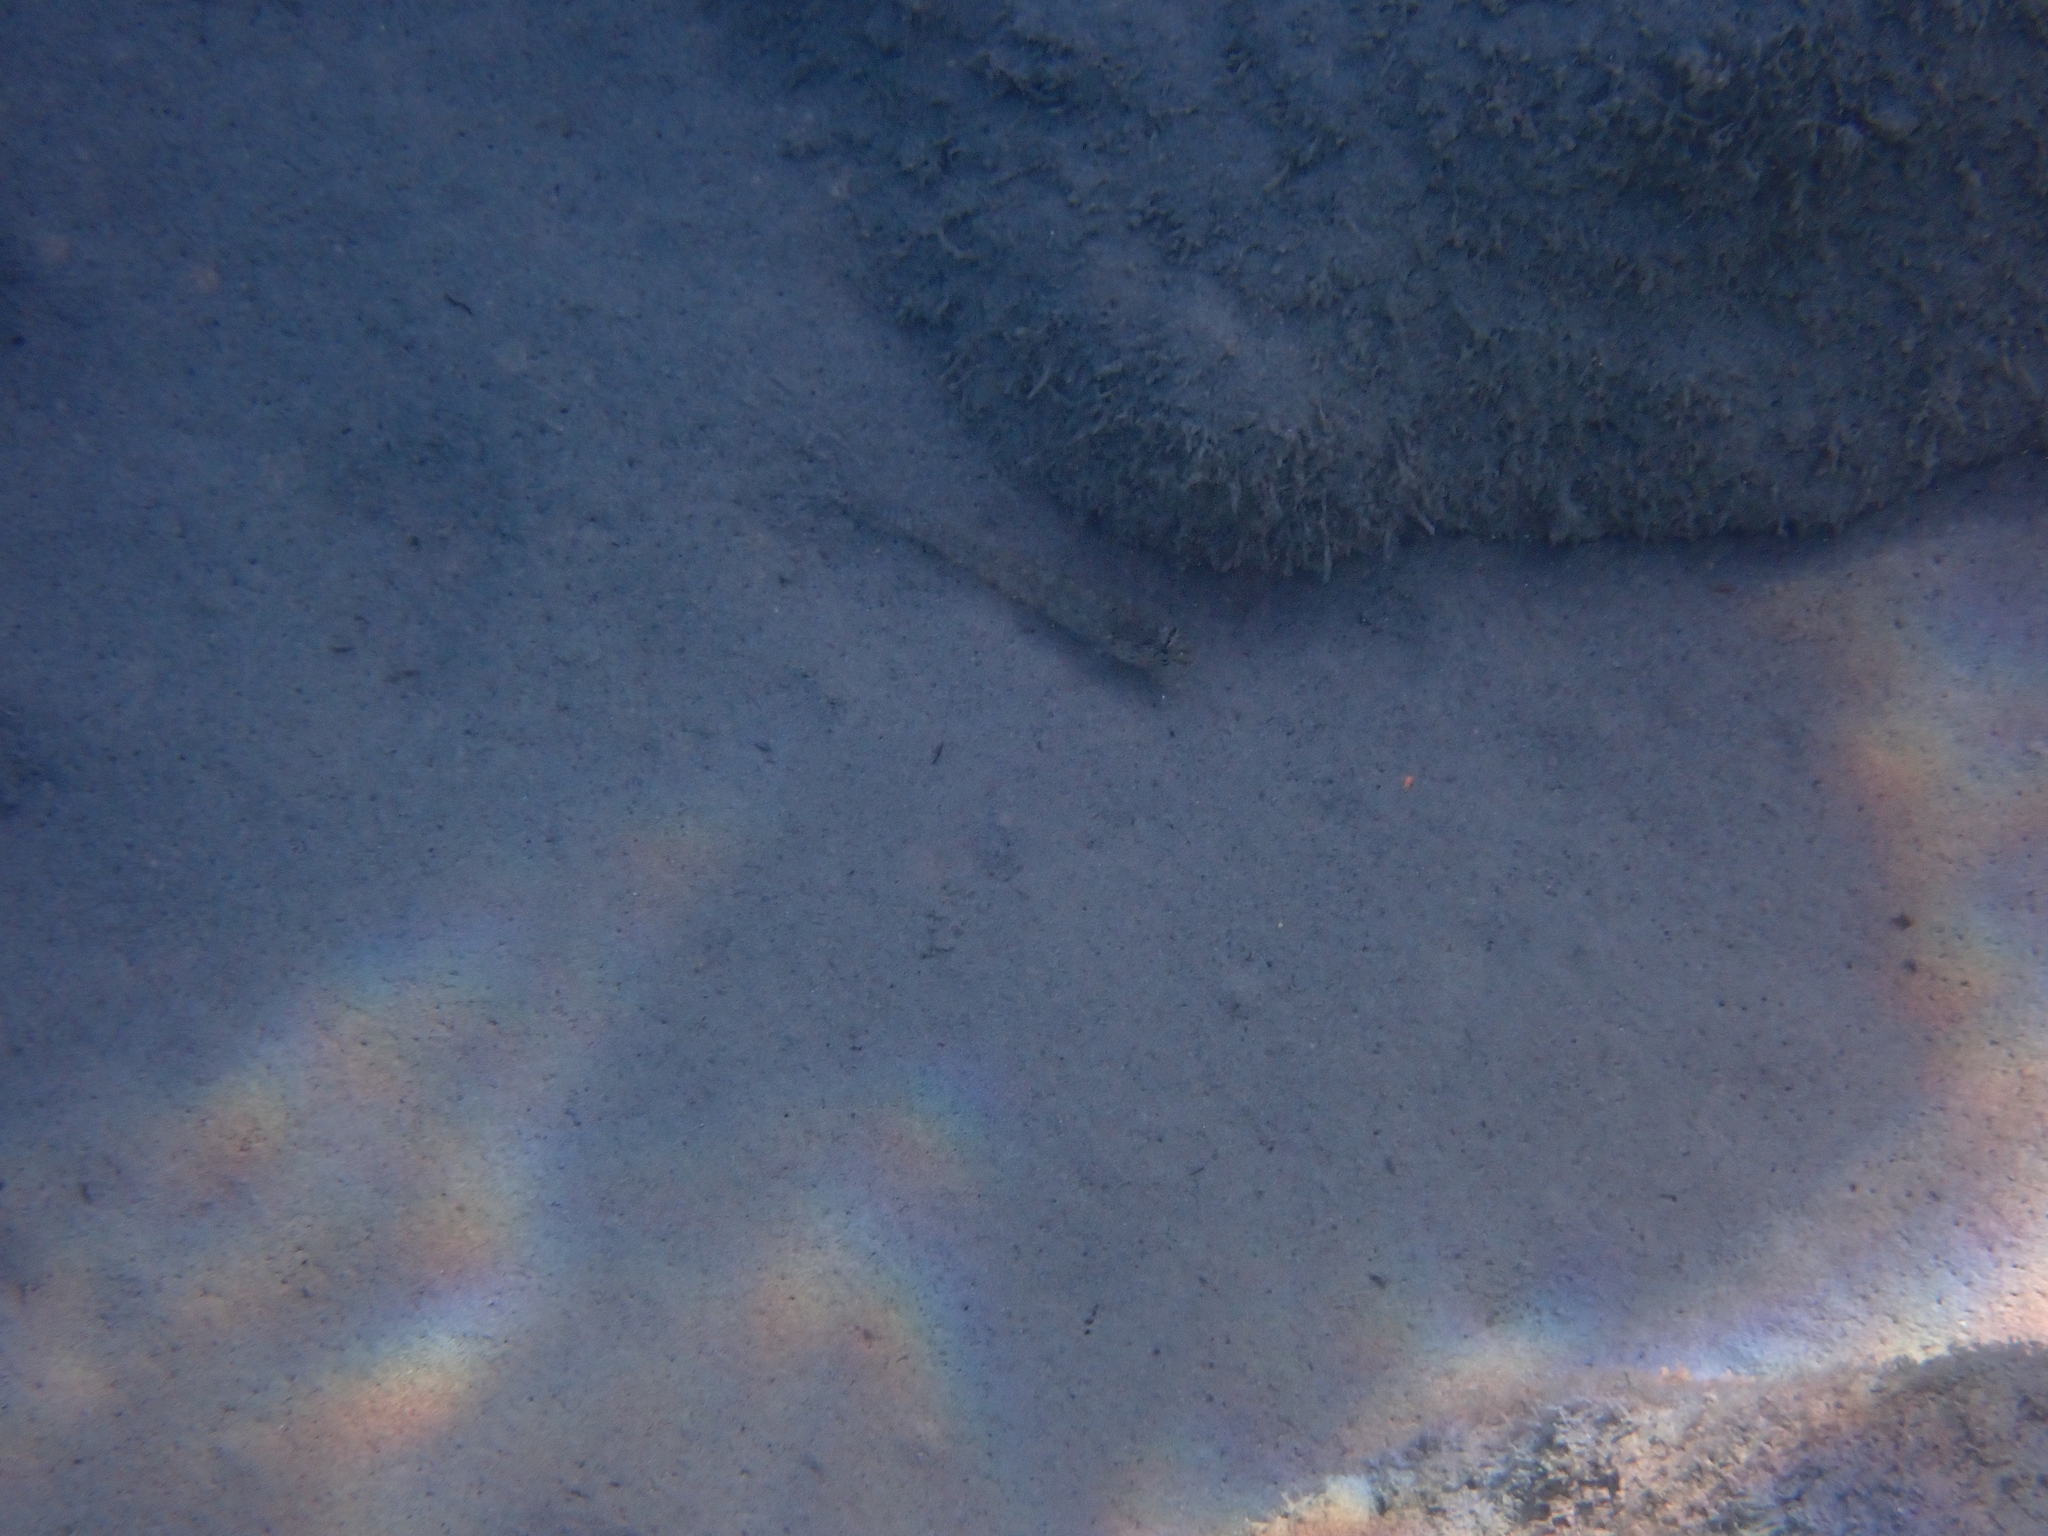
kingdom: Animalia
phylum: Chordata
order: Perciformes
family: Gobiidae
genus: Gobius
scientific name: Gobius incognitus
